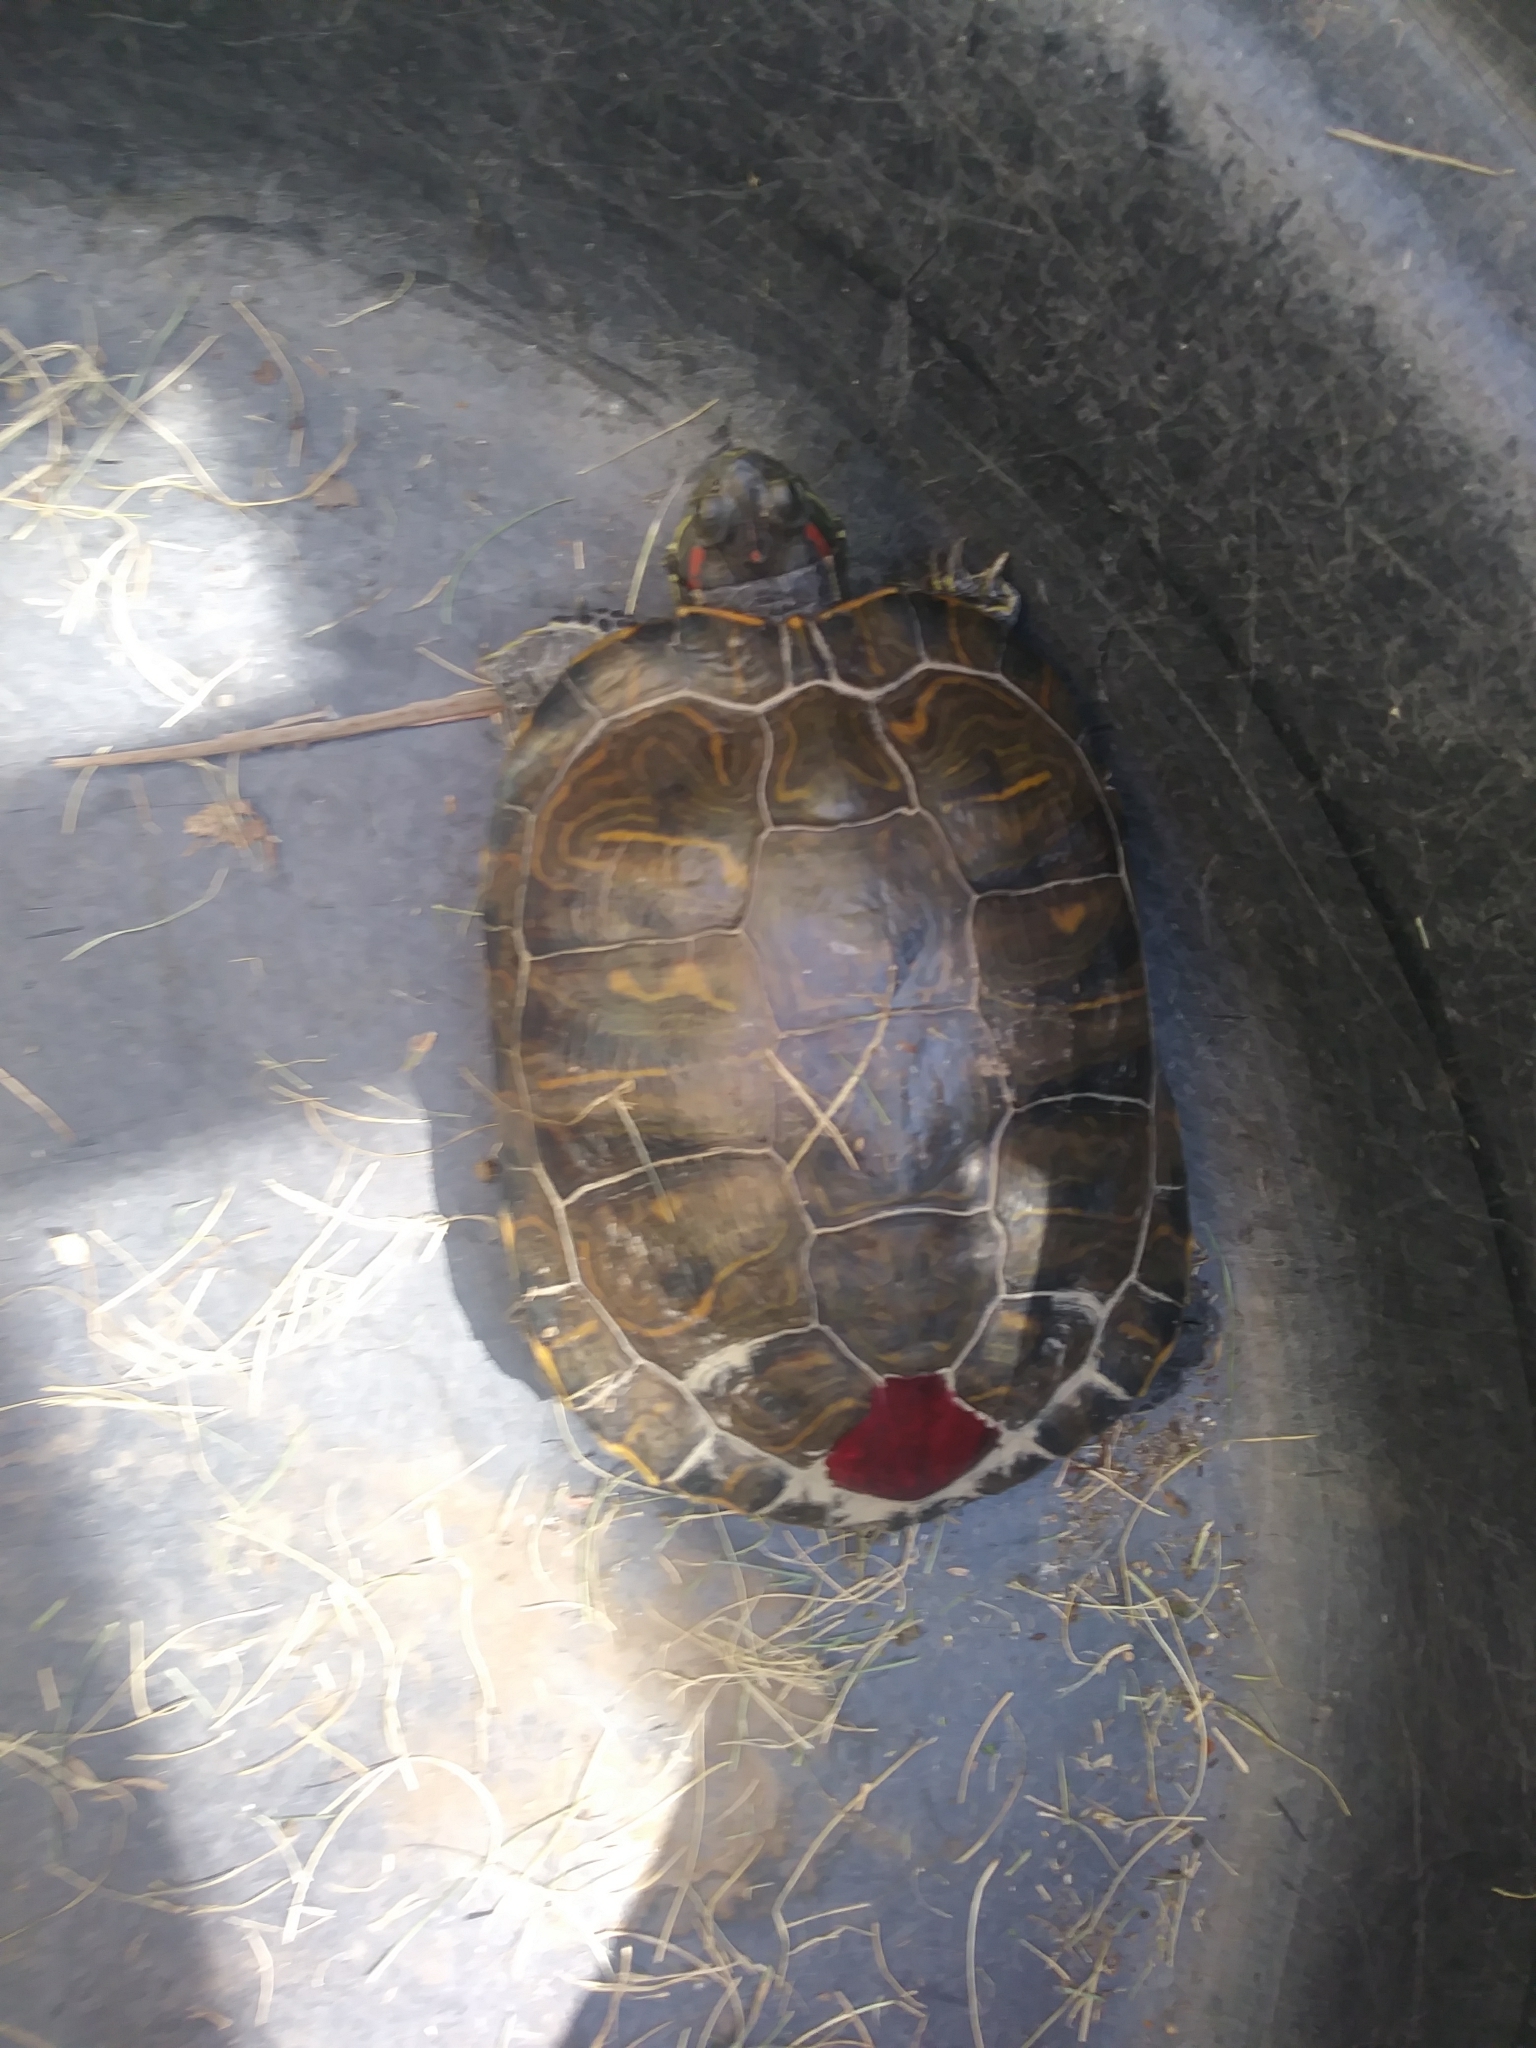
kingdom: Animalia
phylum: Chordata
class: Testudines
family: Emydidae
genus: Trachemys
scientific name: Trachemys scripta
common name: Slider
